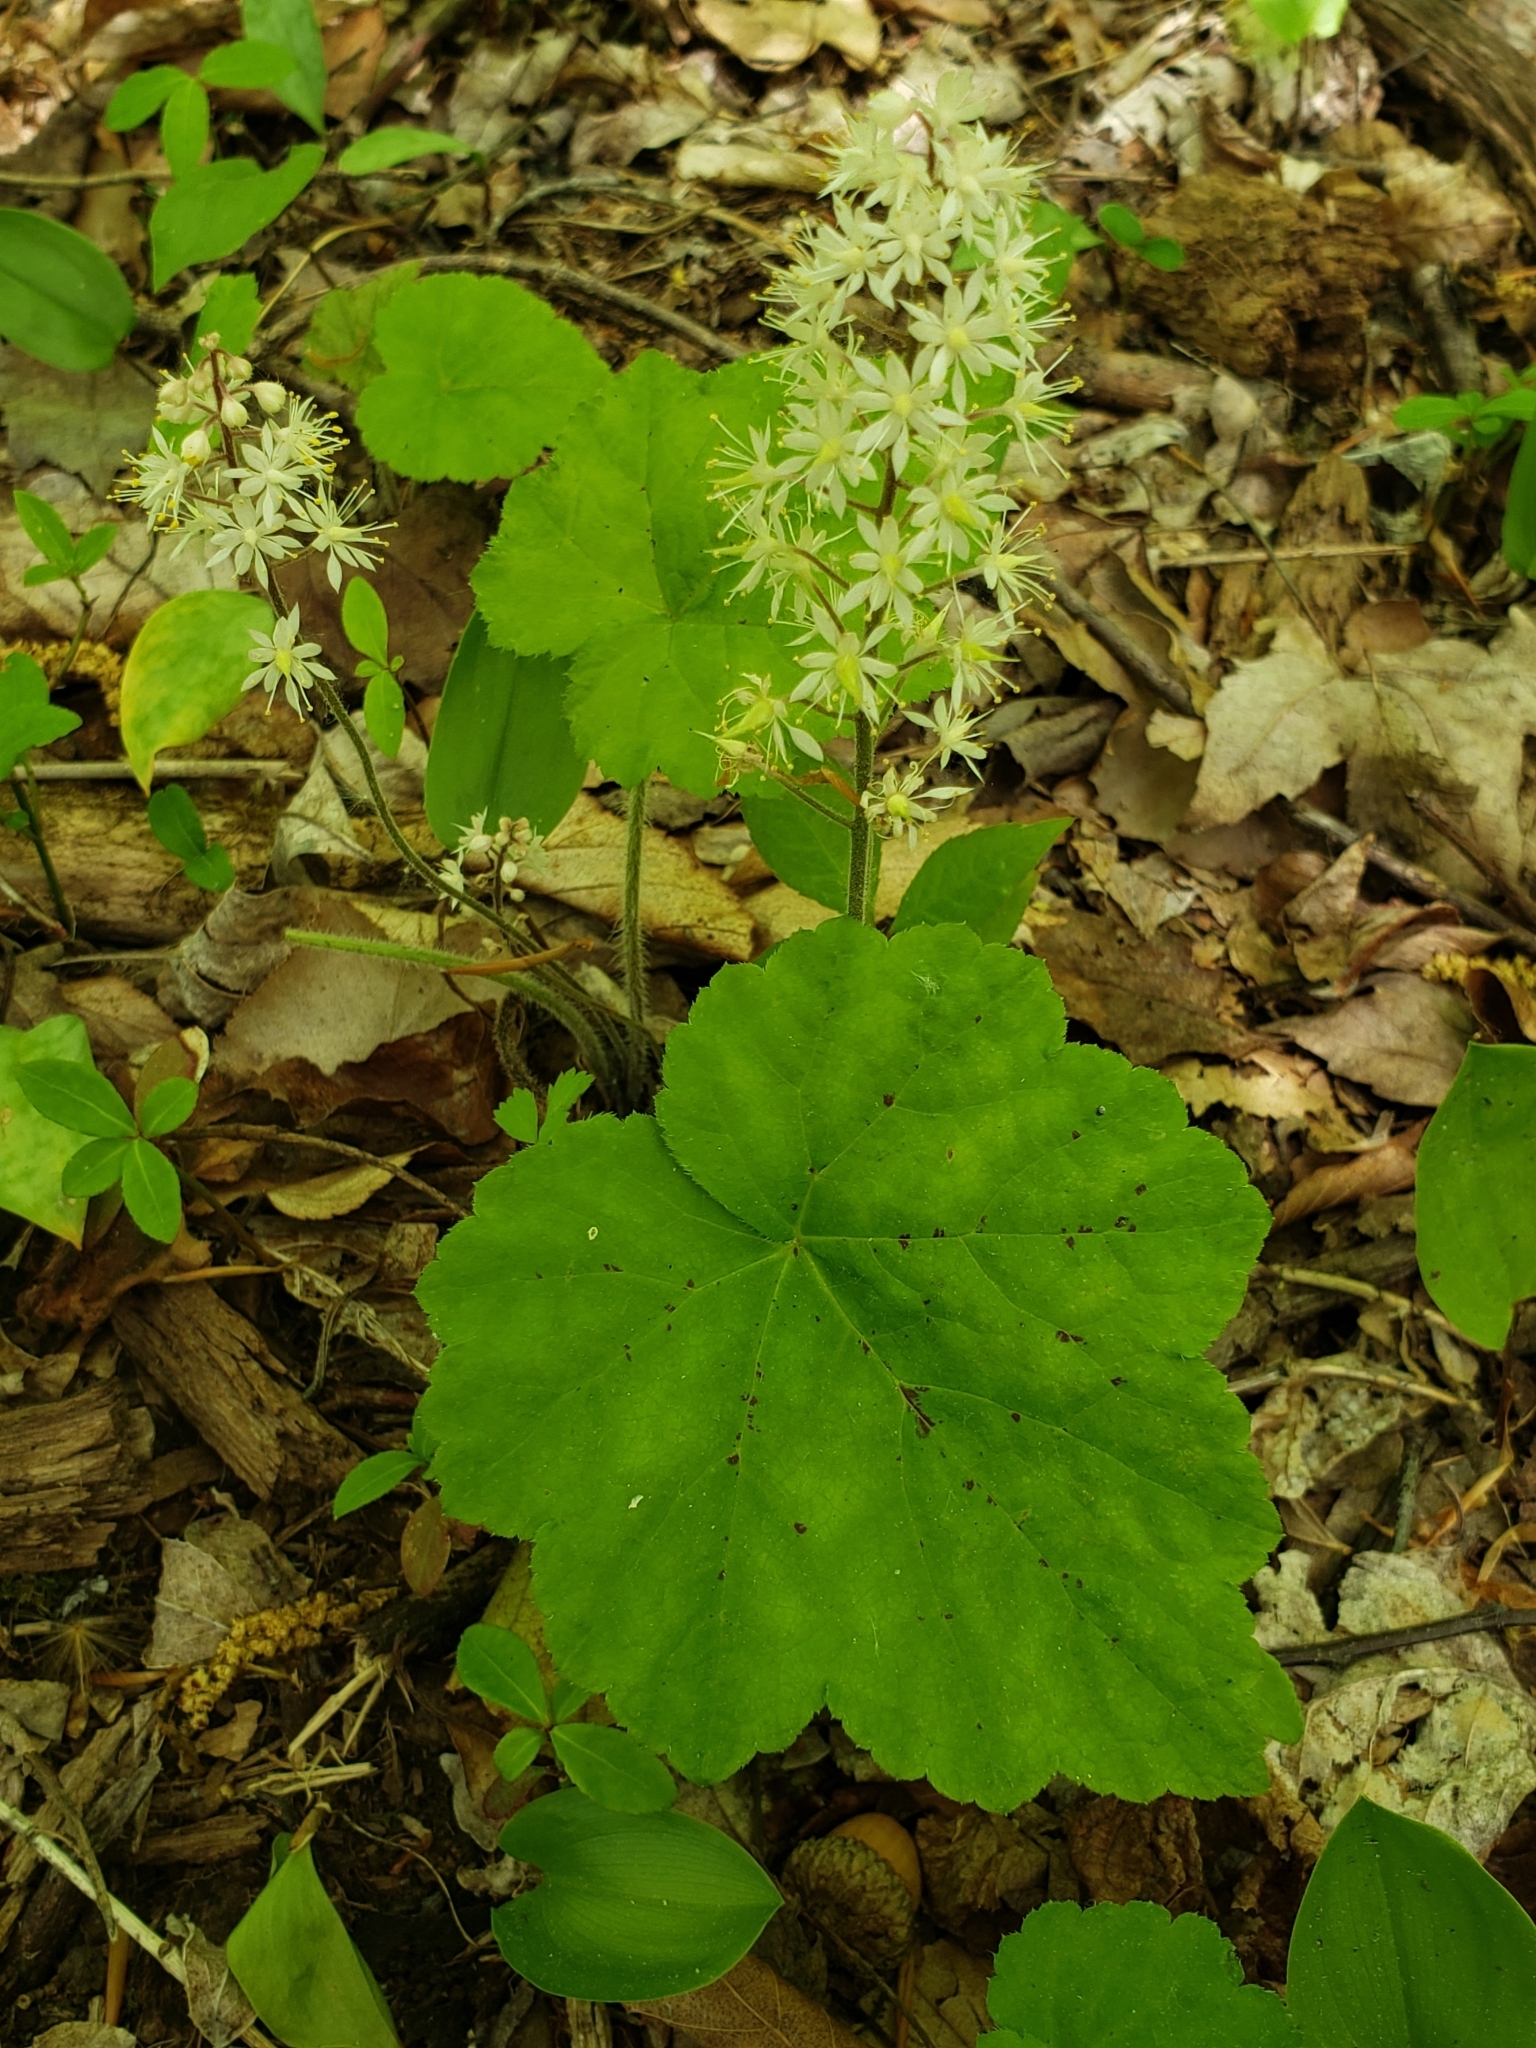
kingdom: Plantae
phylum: Tracheophyta
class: Magnoliopsida
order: Saxifragales
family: Saxifragaceae
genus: Tiarella
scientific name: Tiarella stolonifera
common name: Stoloniferous foamflower
